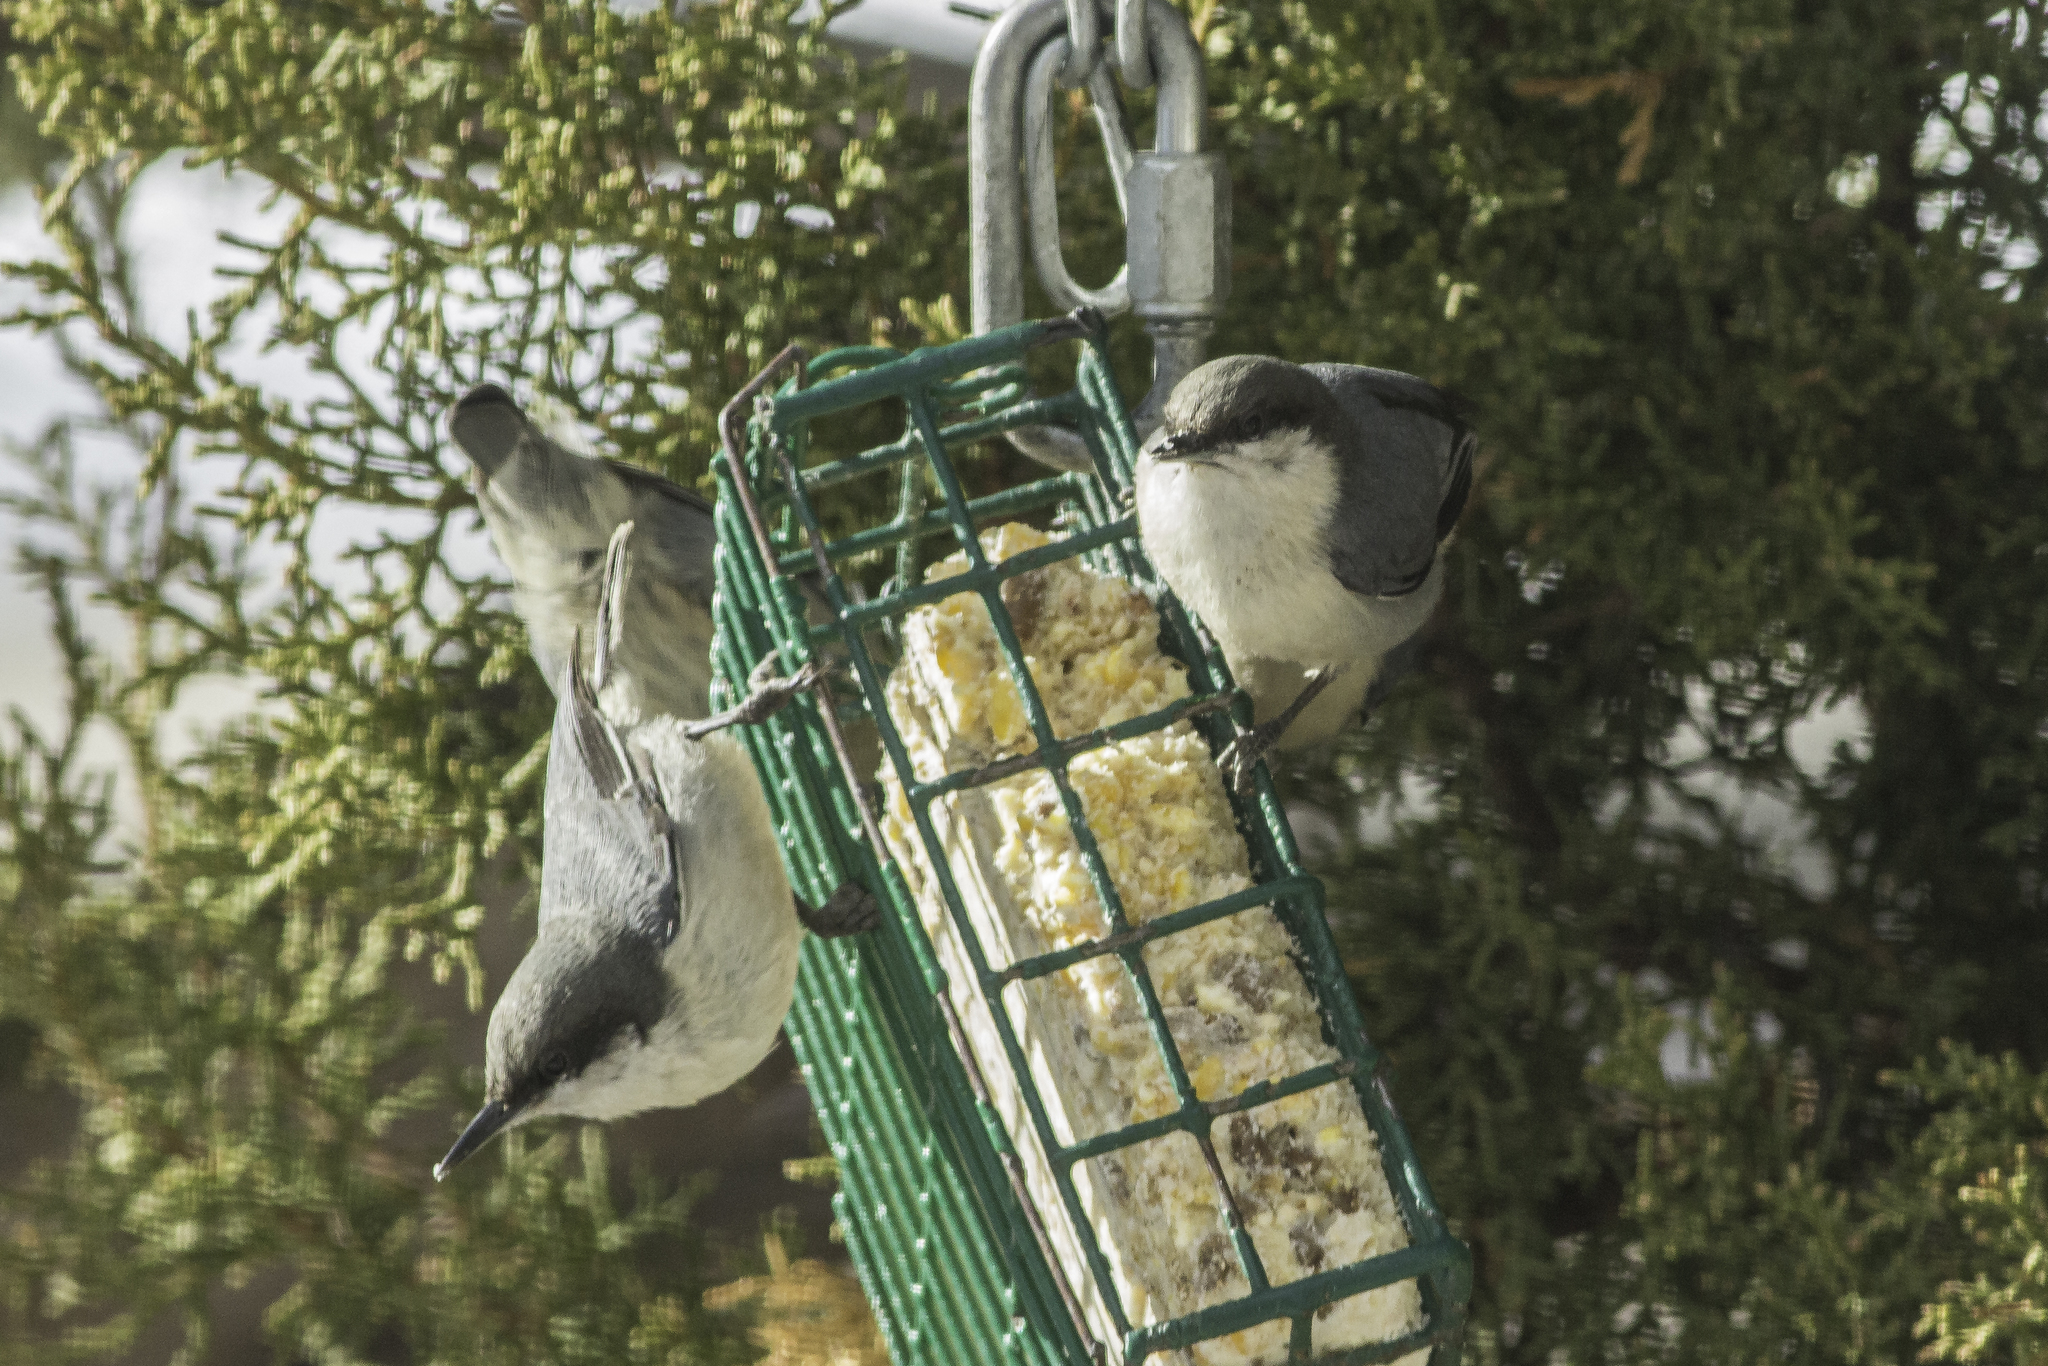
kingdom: Animalia
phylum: Chordata
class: Aves
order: Passeriformes
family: Sittidae
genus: Sitta
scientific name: Sitta pygmaea
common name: Pygmy nuthatch
